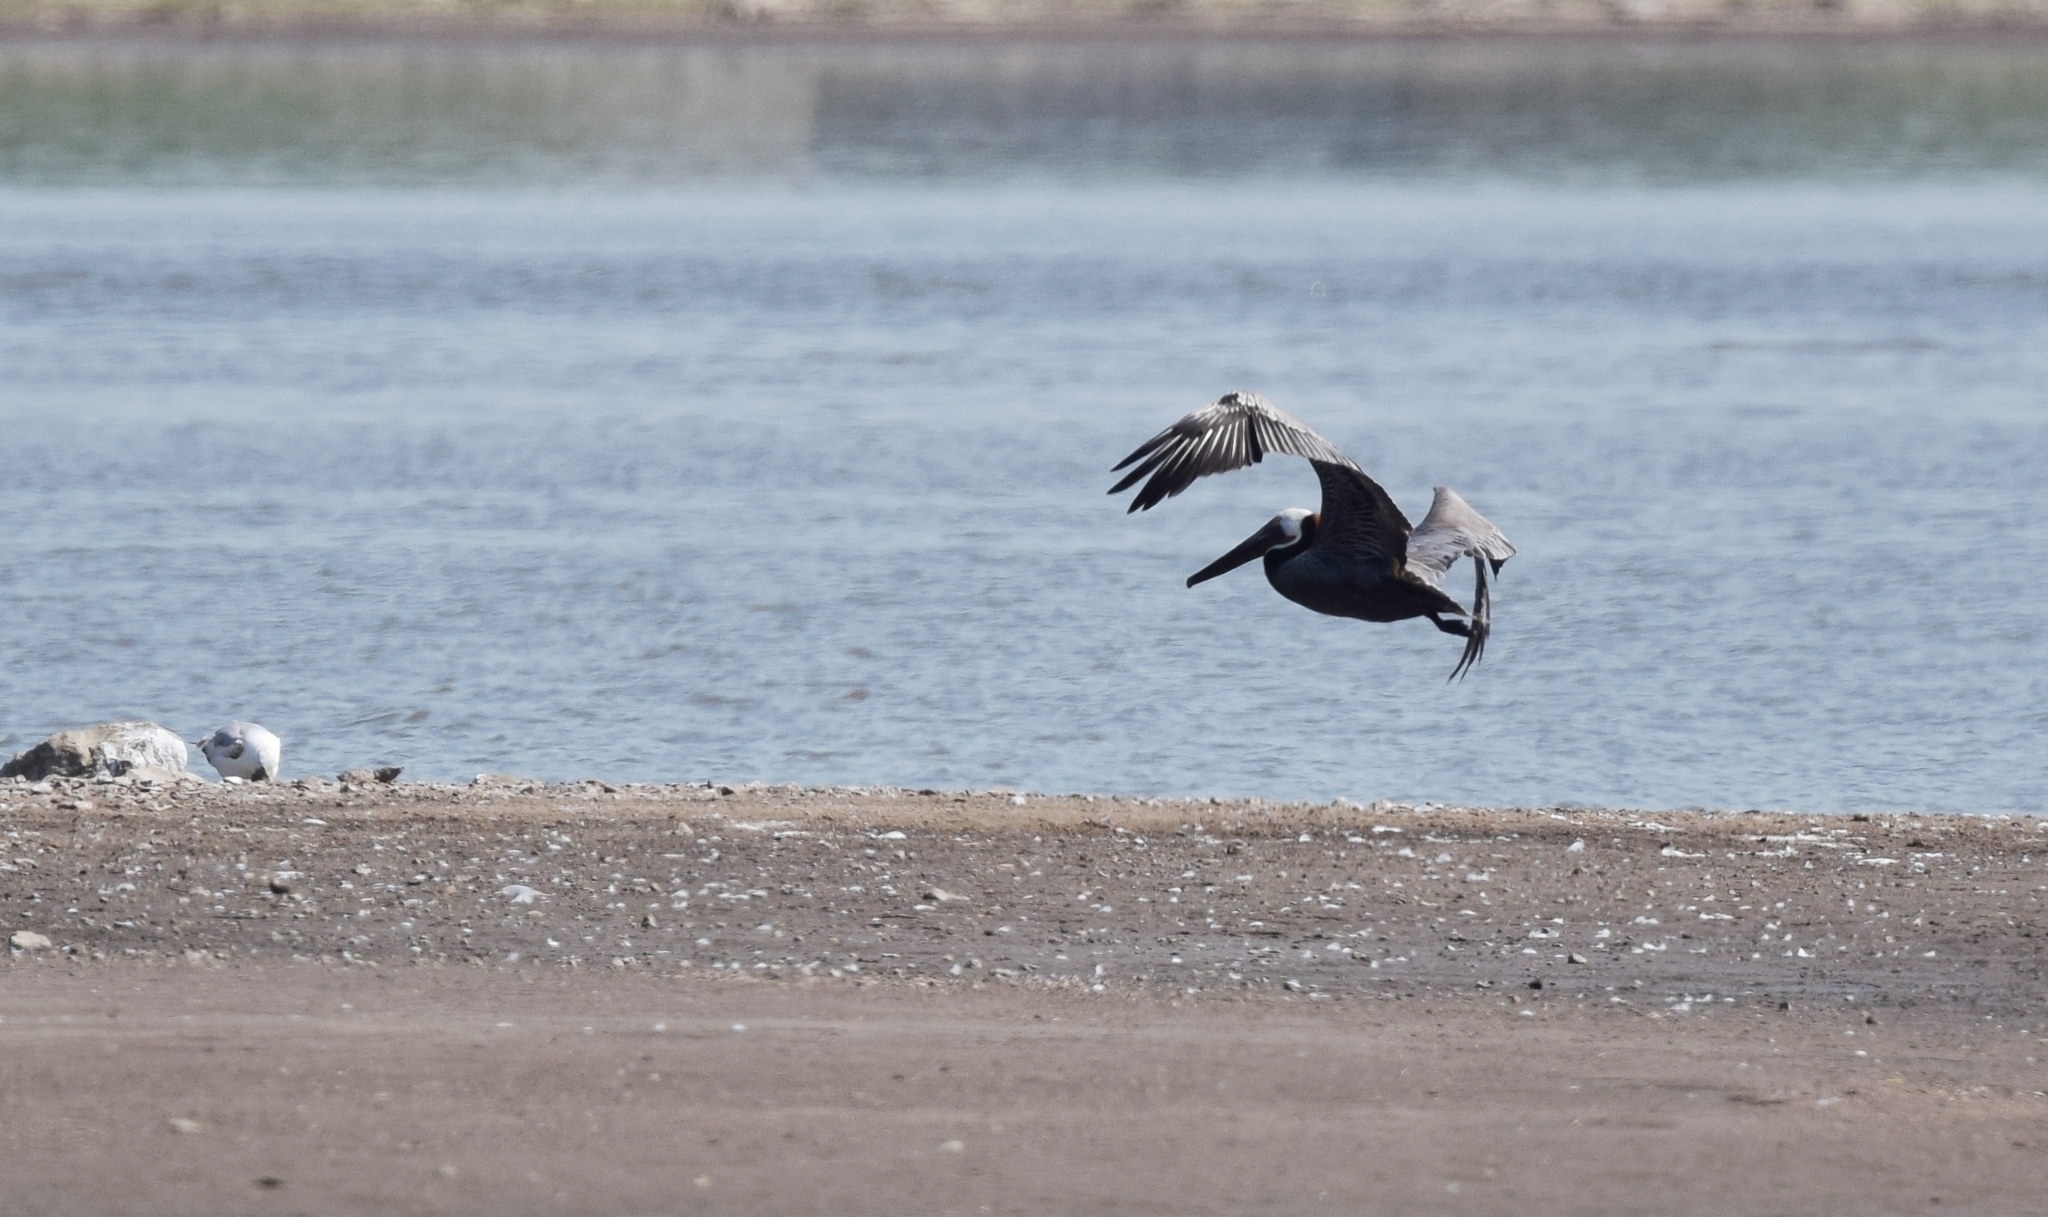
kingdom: Animalia
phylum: Chordata
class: Aves
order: Pelecaniformes
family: Pelecanidae
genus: Pelecanus
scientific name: Pelecanus occidentalis
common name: Brown pelican
